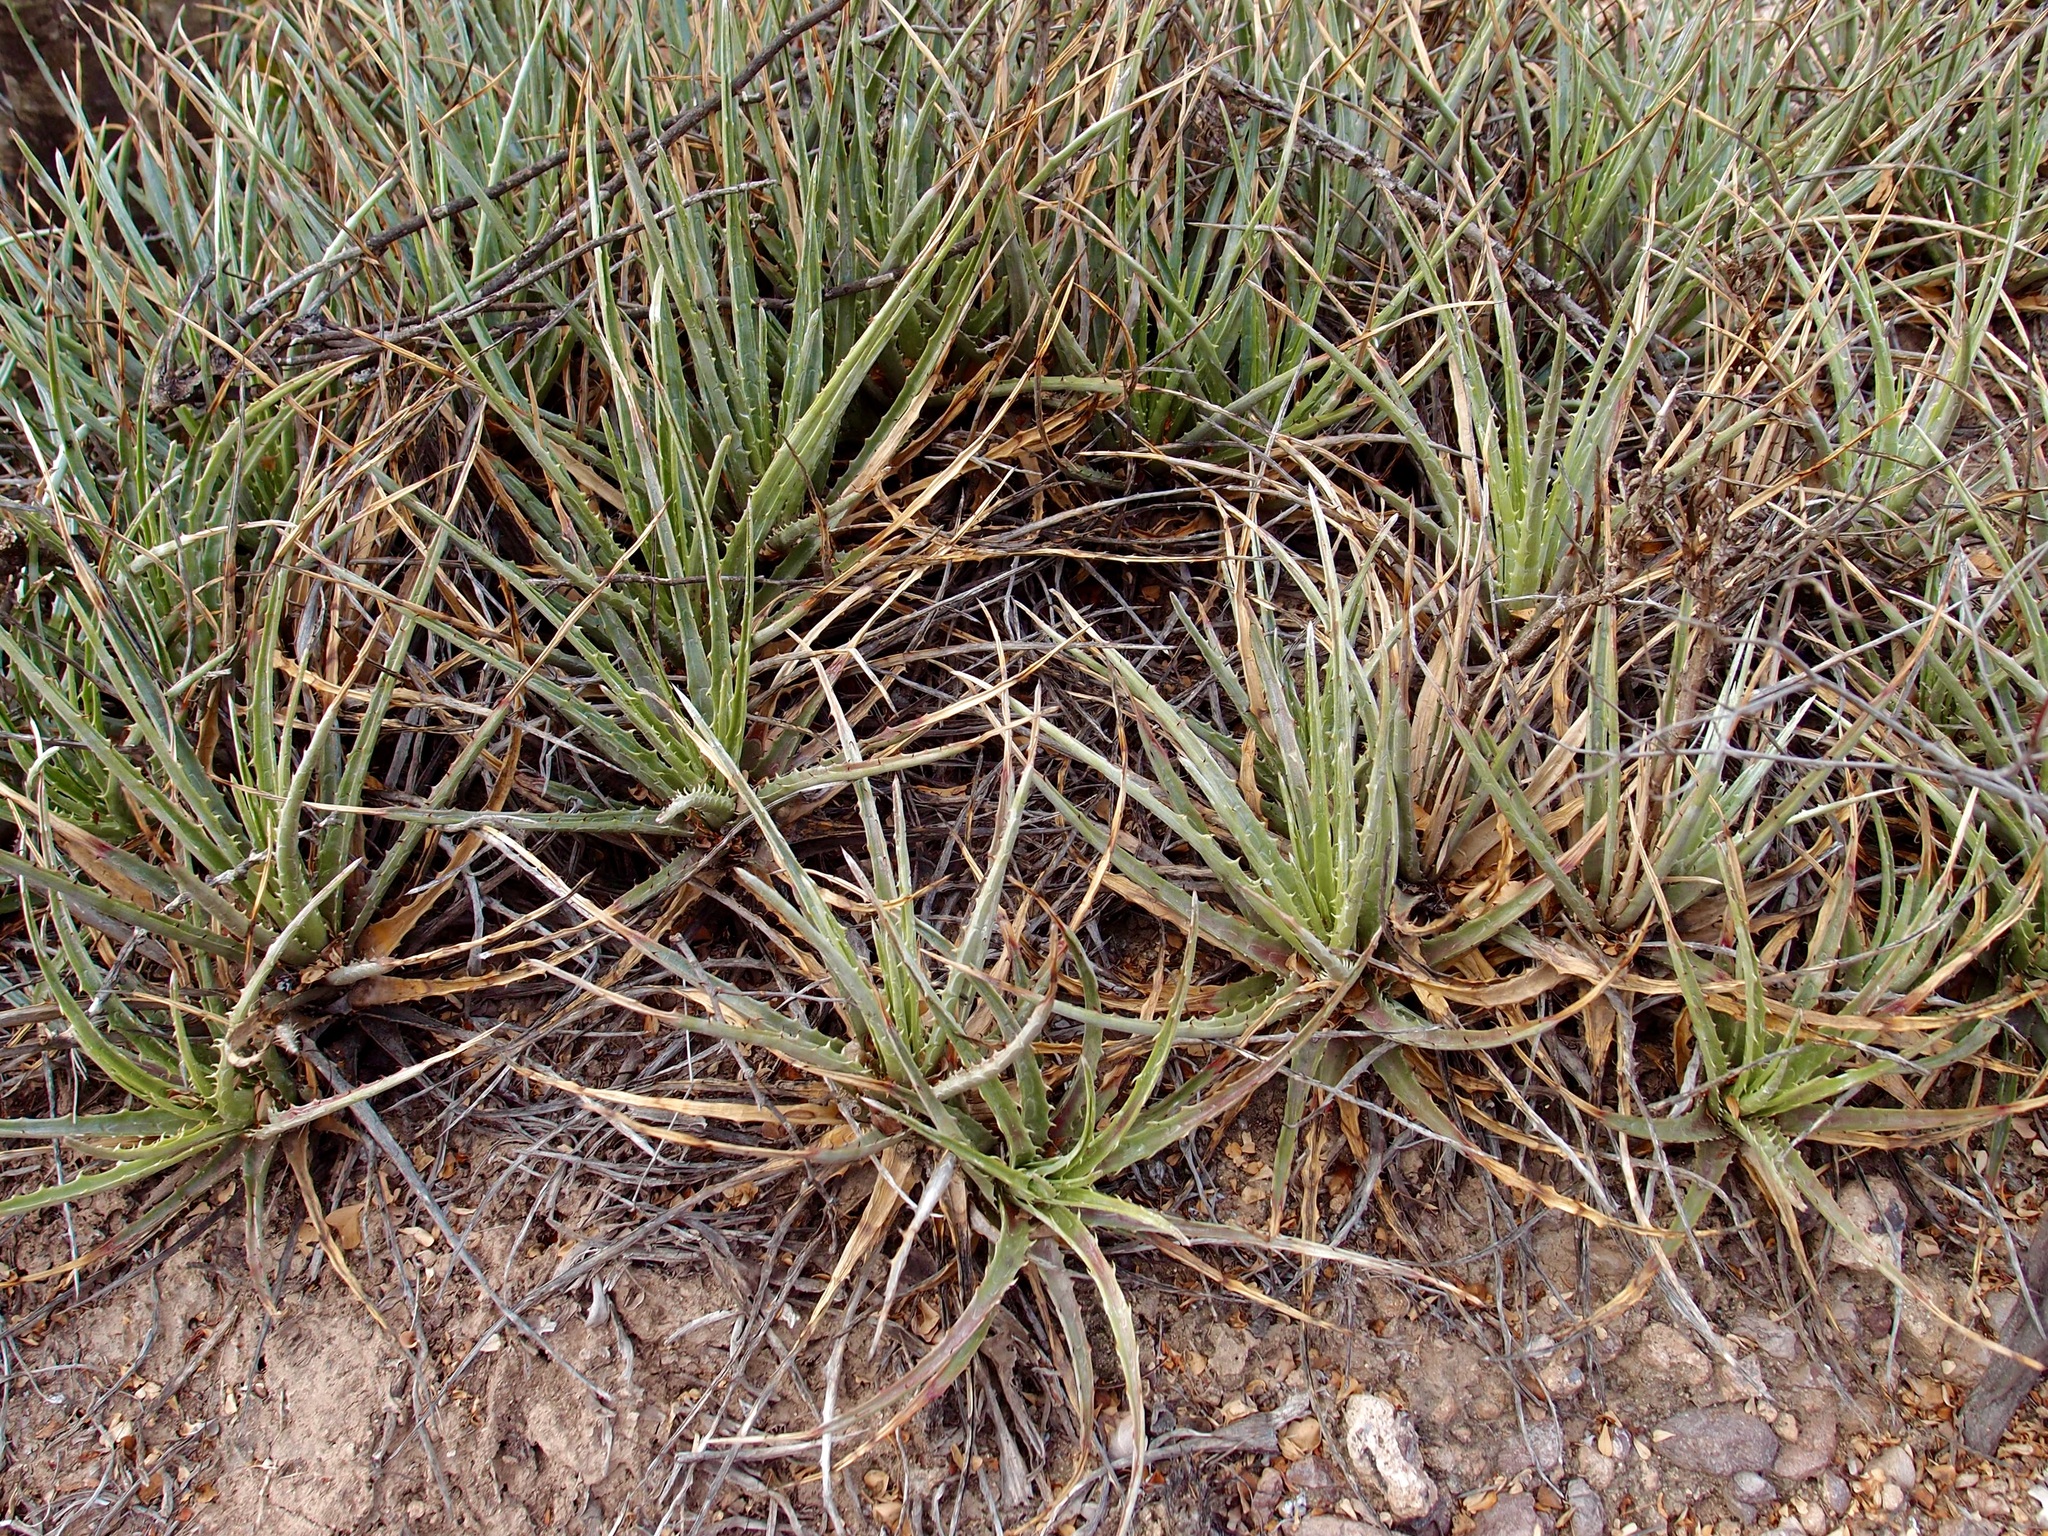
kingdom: Plantae
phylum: Tracheophyta
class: Liliopsida
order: Poales
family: Bromeliaceae
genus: Hechtia
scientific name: Hechtia montana
